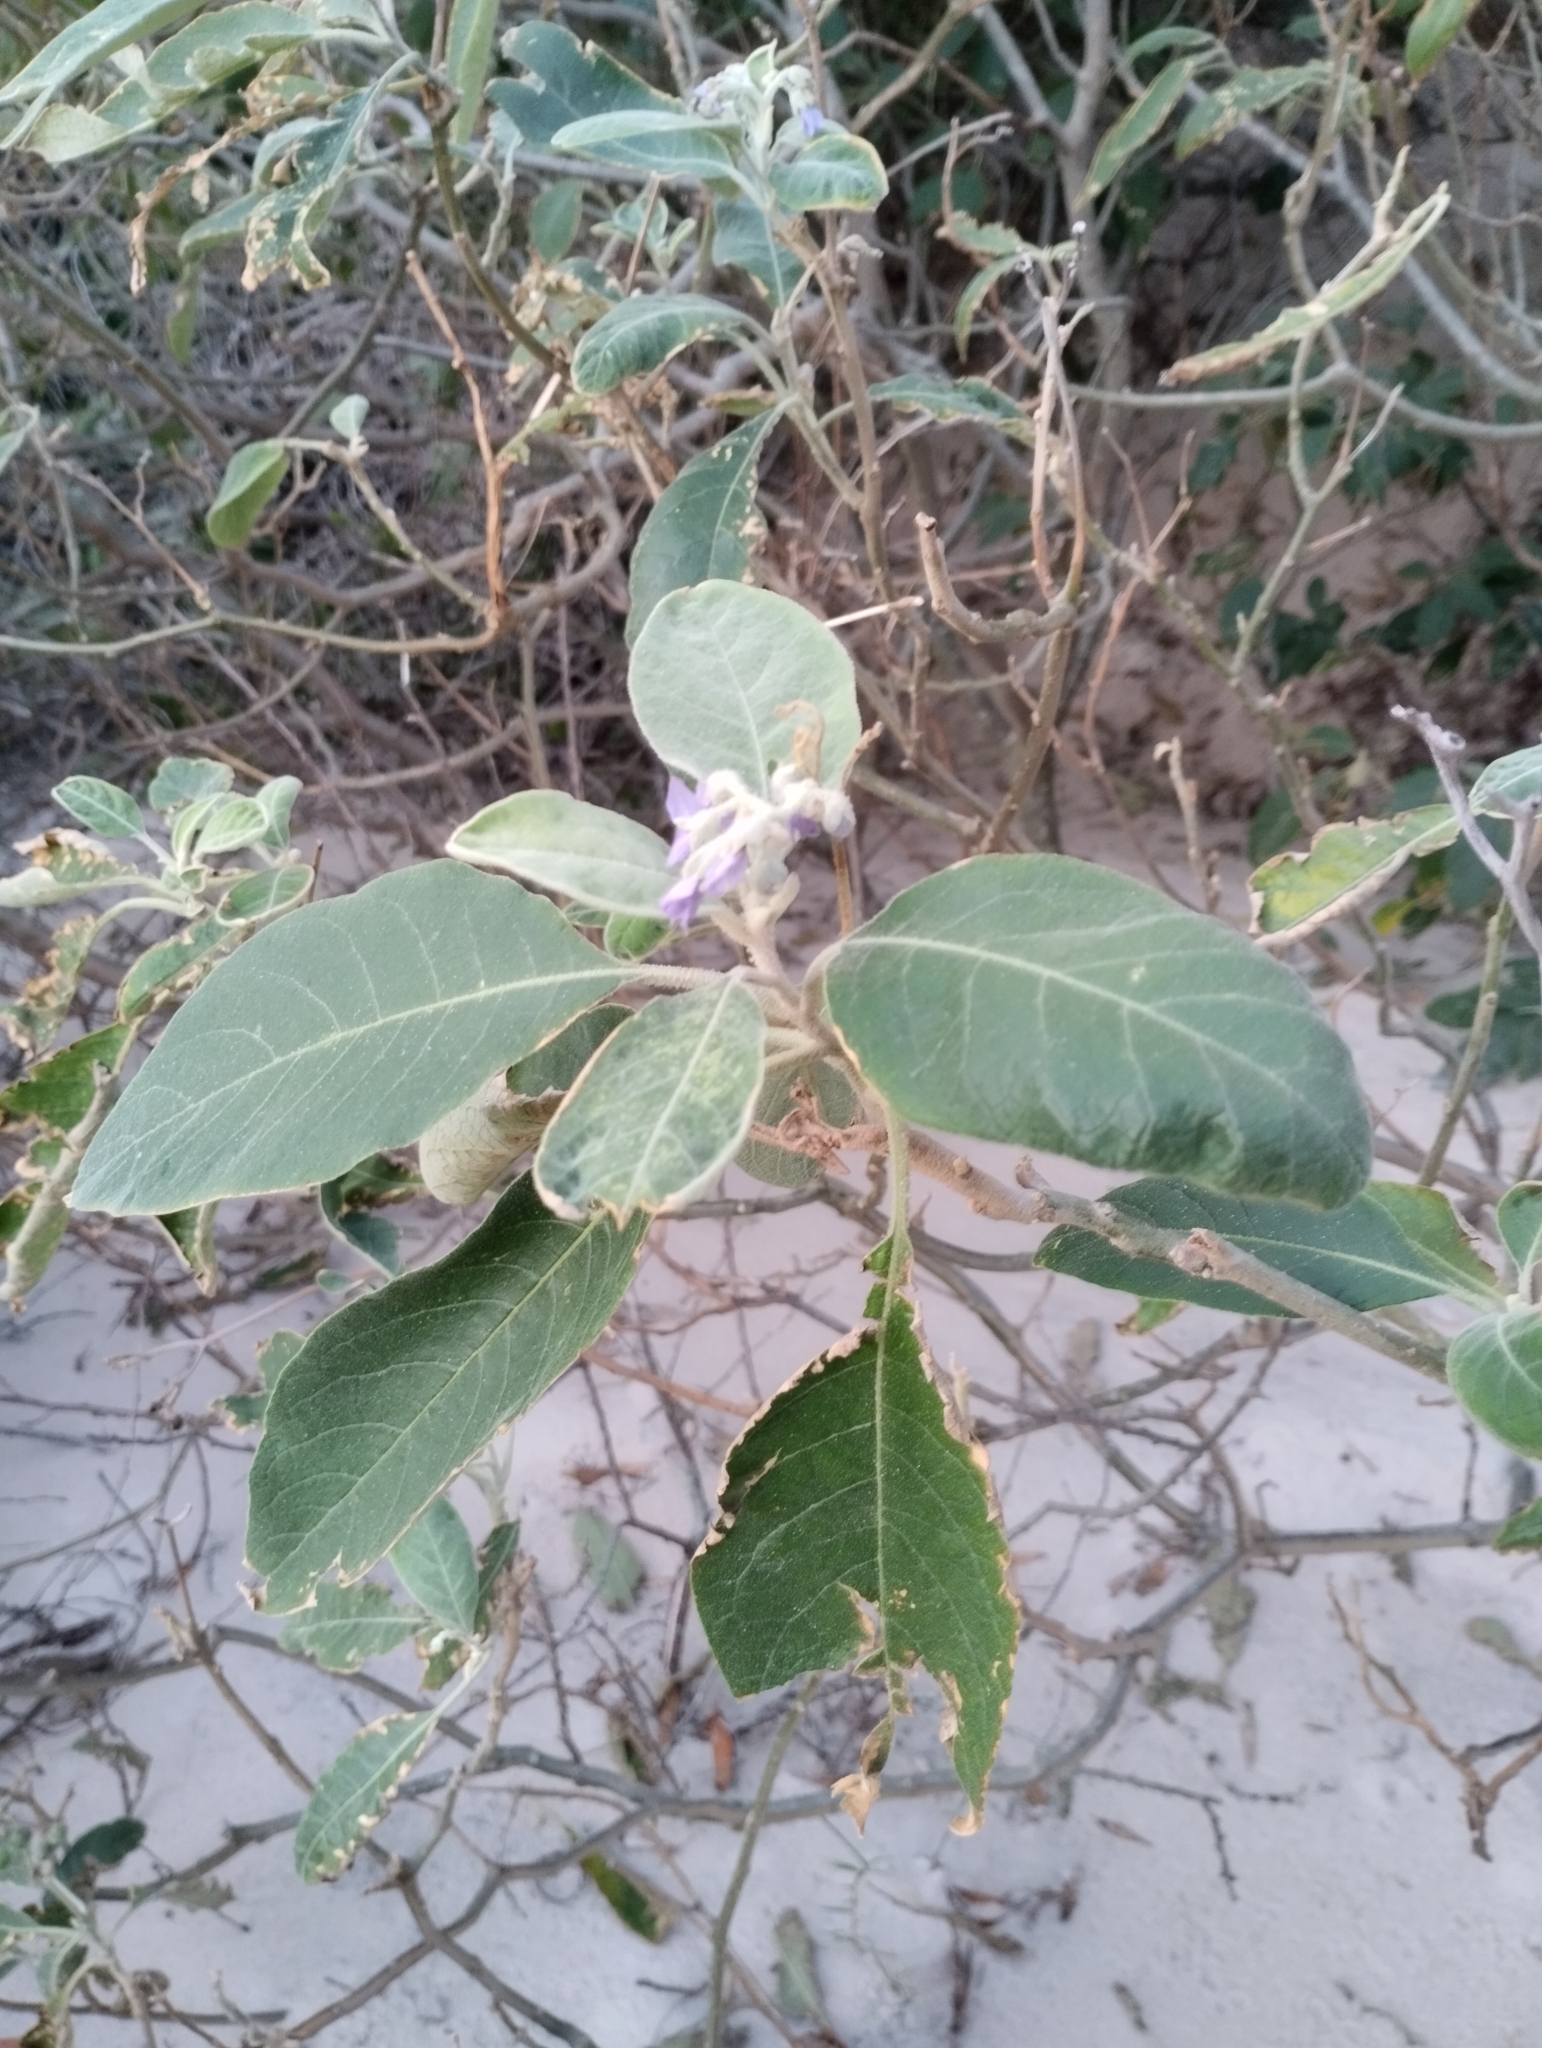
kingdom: Plantae
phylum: Tracheophyta
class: Magnoliopsida
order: Solanales
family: Solanaceae
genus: Solanum
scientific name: Solanum mauritianum
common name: Earleaf nightshade
